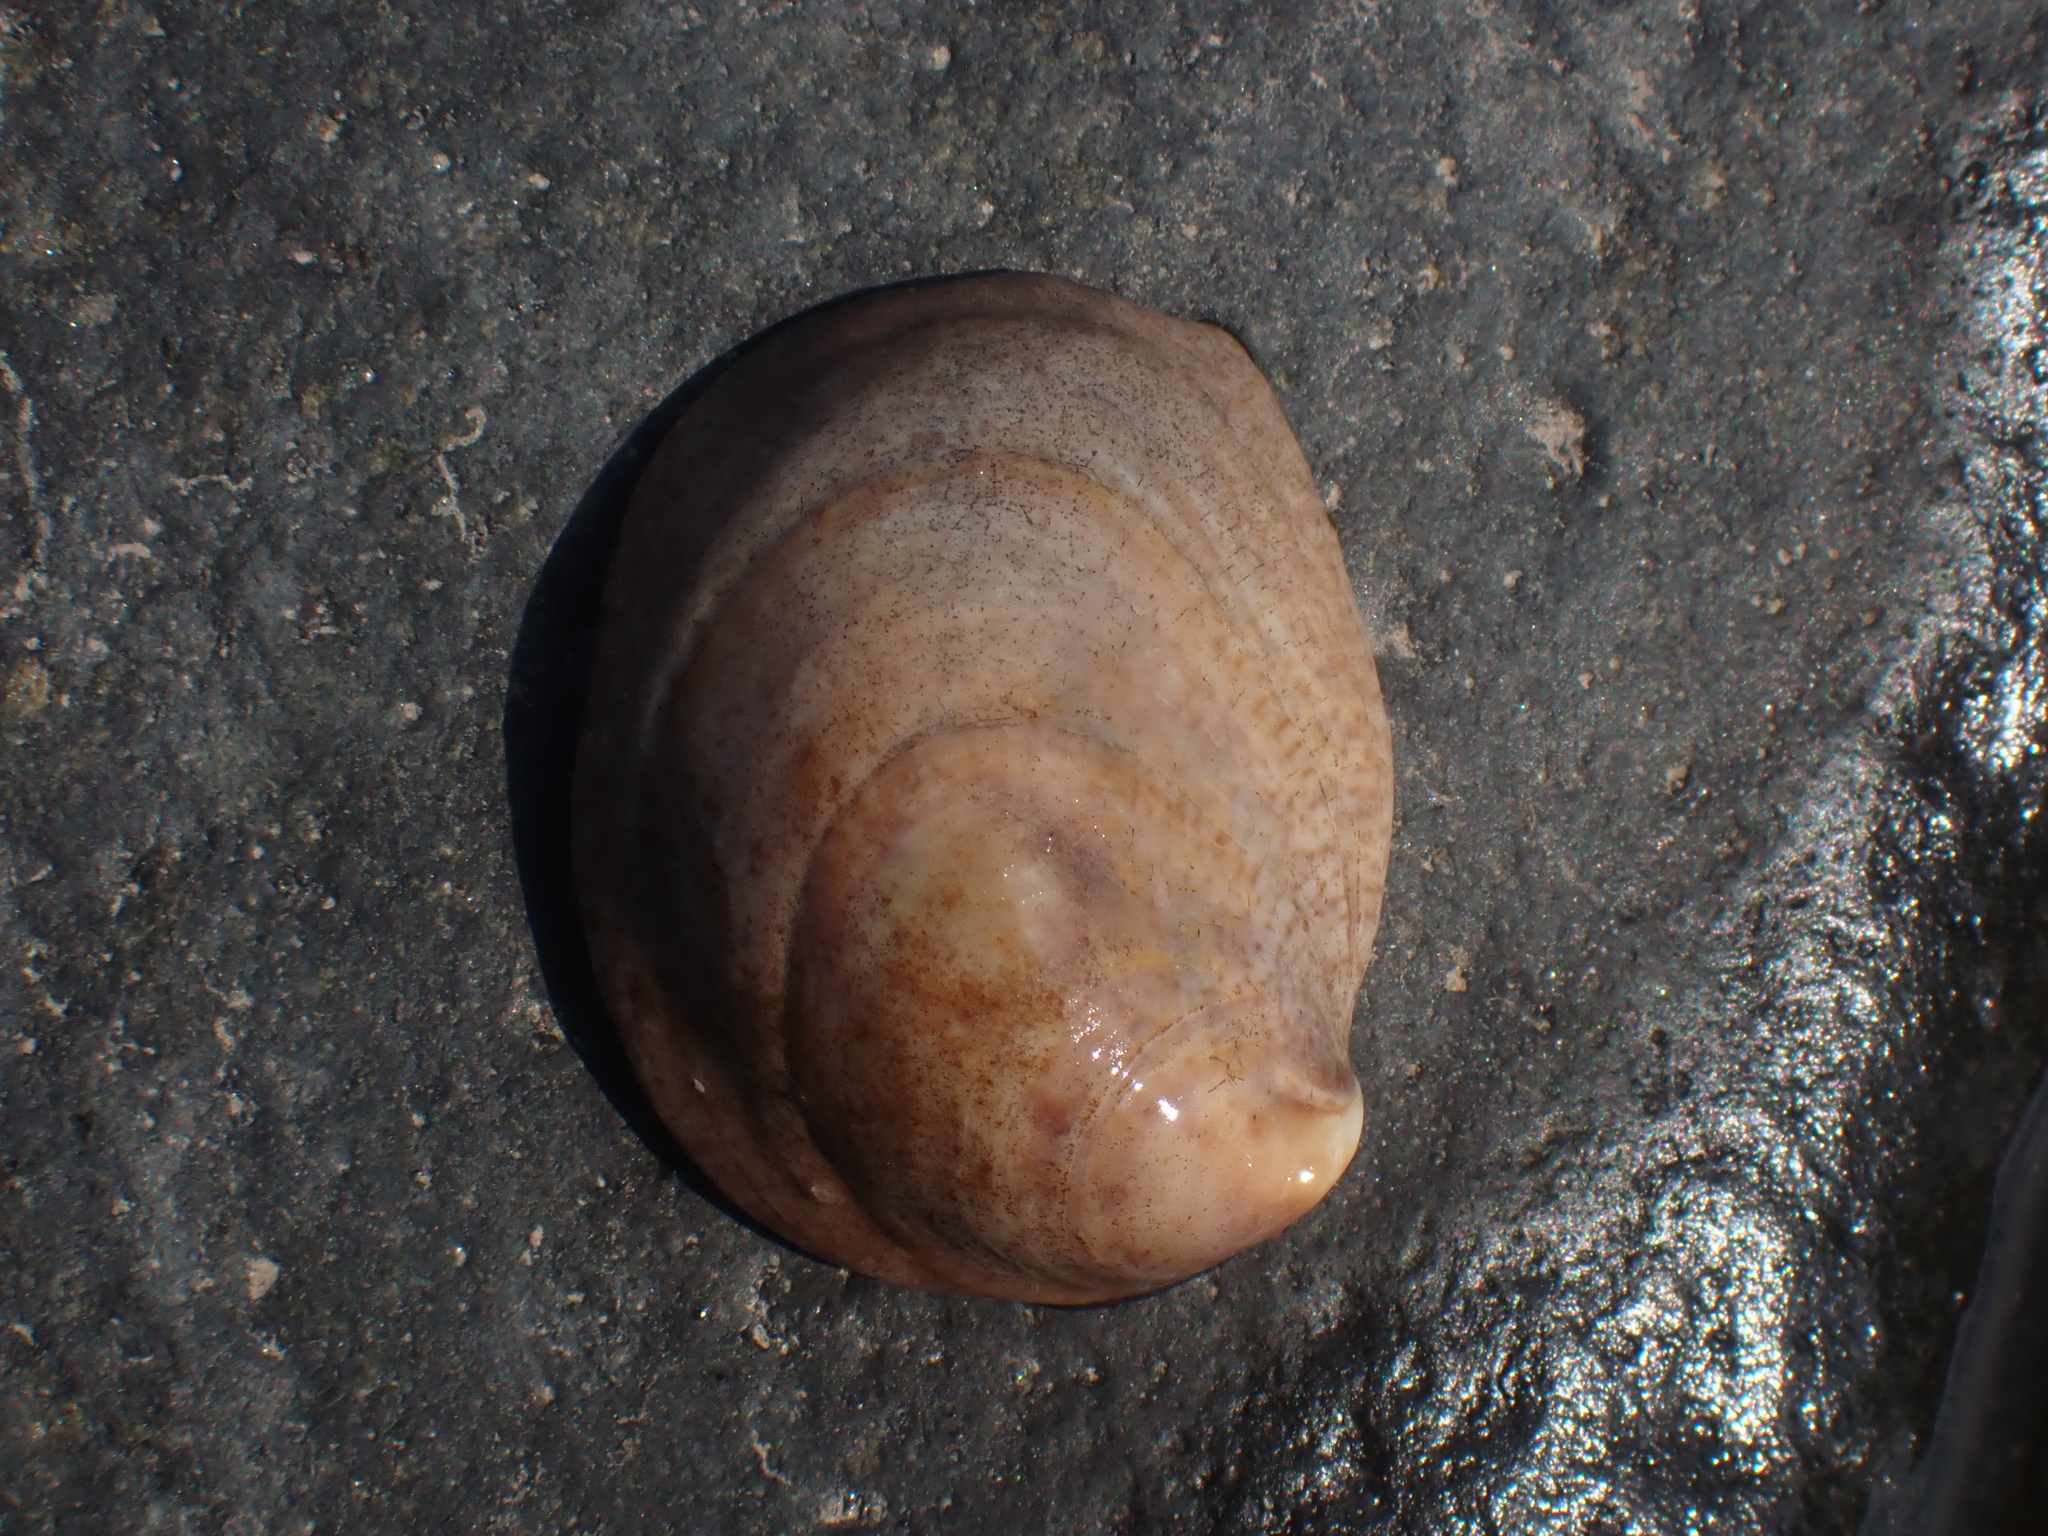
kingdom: Animalia
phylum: Mollusca
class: Gastropoda
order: Littorinimorpha
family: Calyptraeidae
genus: Crepidula
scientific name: Crepidula fornicata
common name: Slipper limpet
